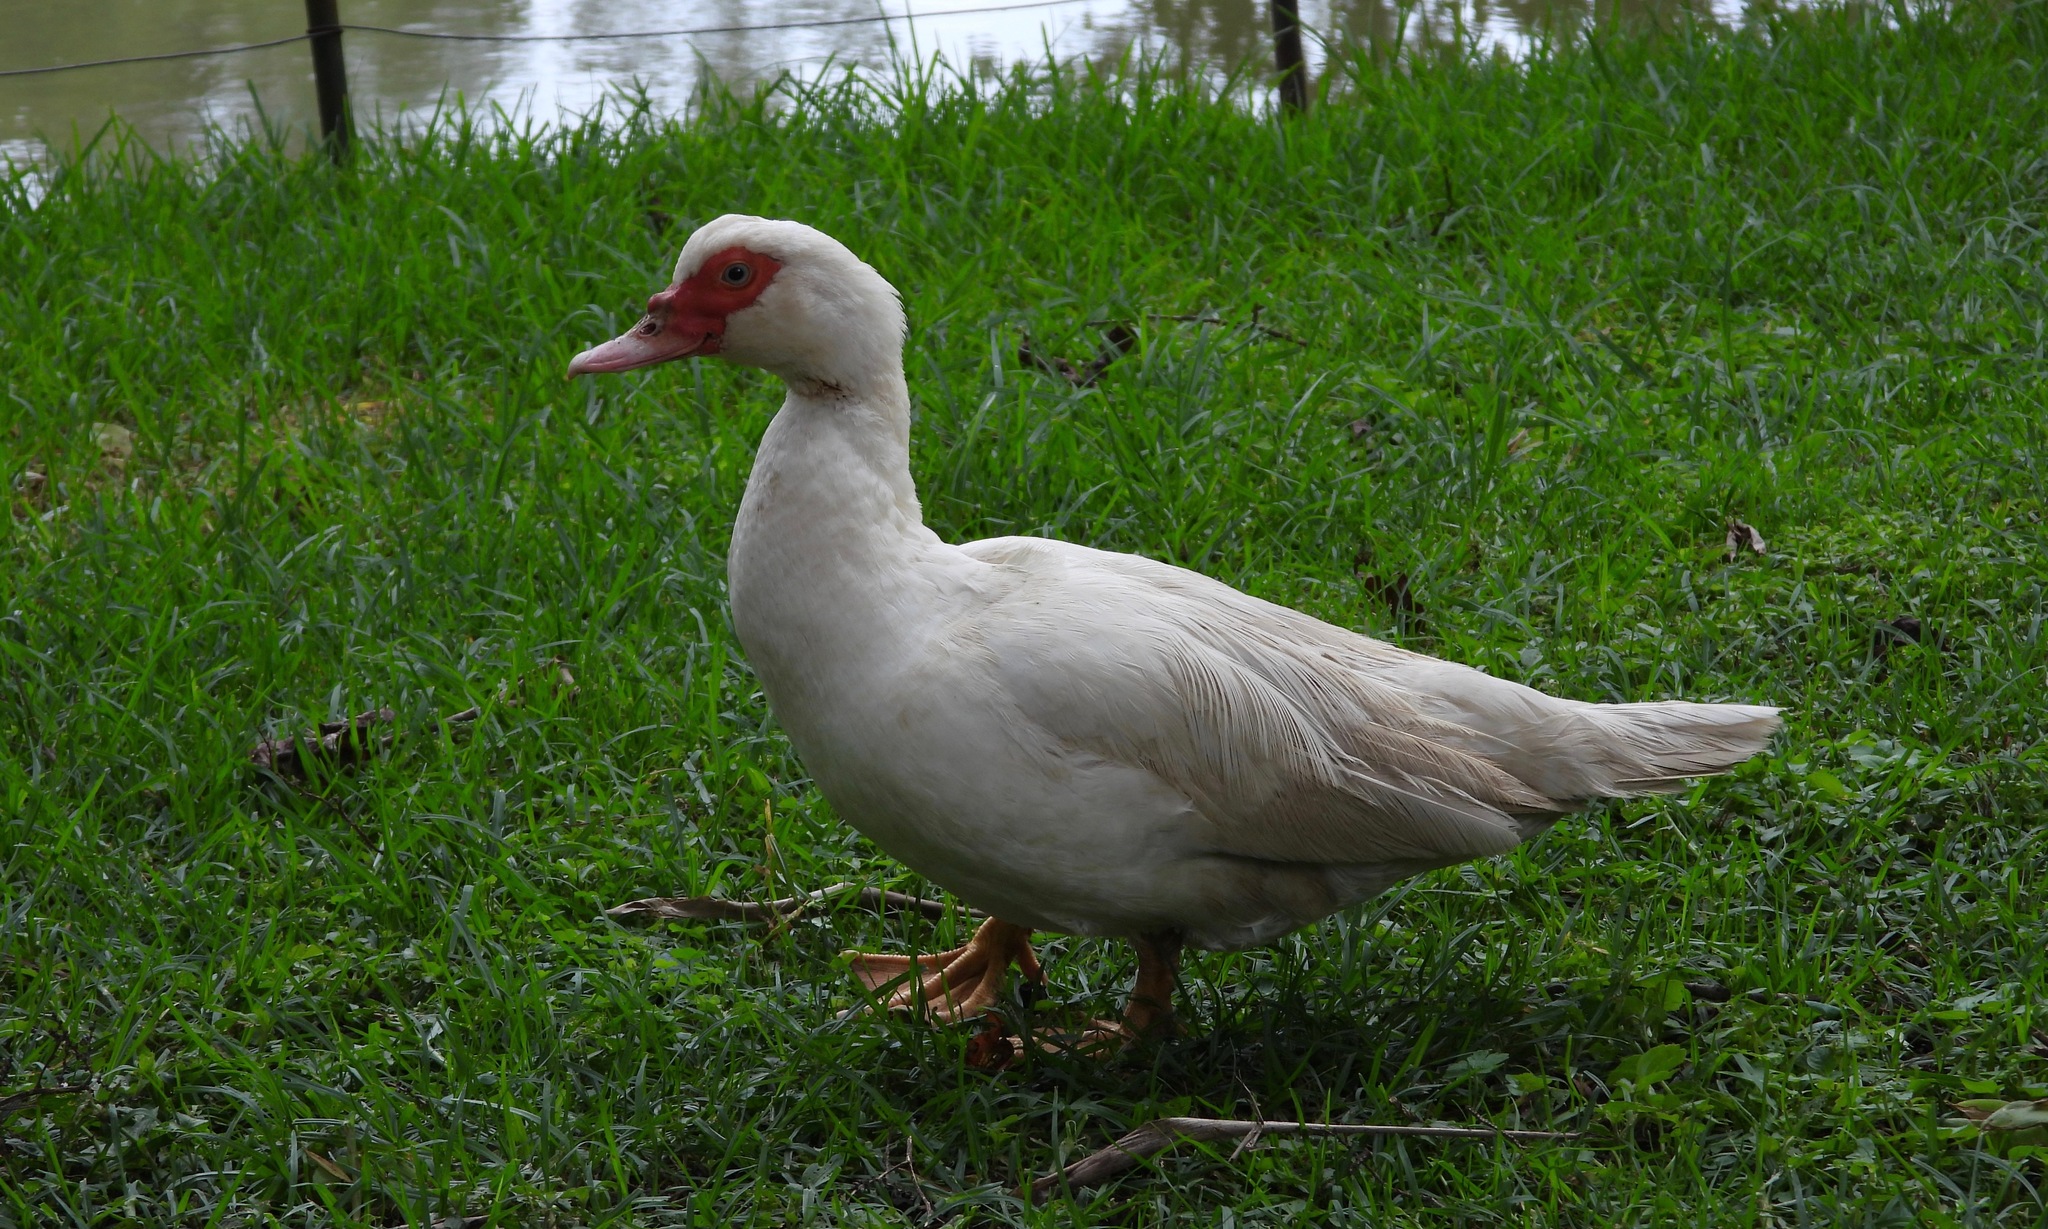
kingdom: Animalia
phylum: Chordata
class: Aves
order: Anseriformes
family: Anatidae
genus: Cairina
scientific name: Cairina moschata
